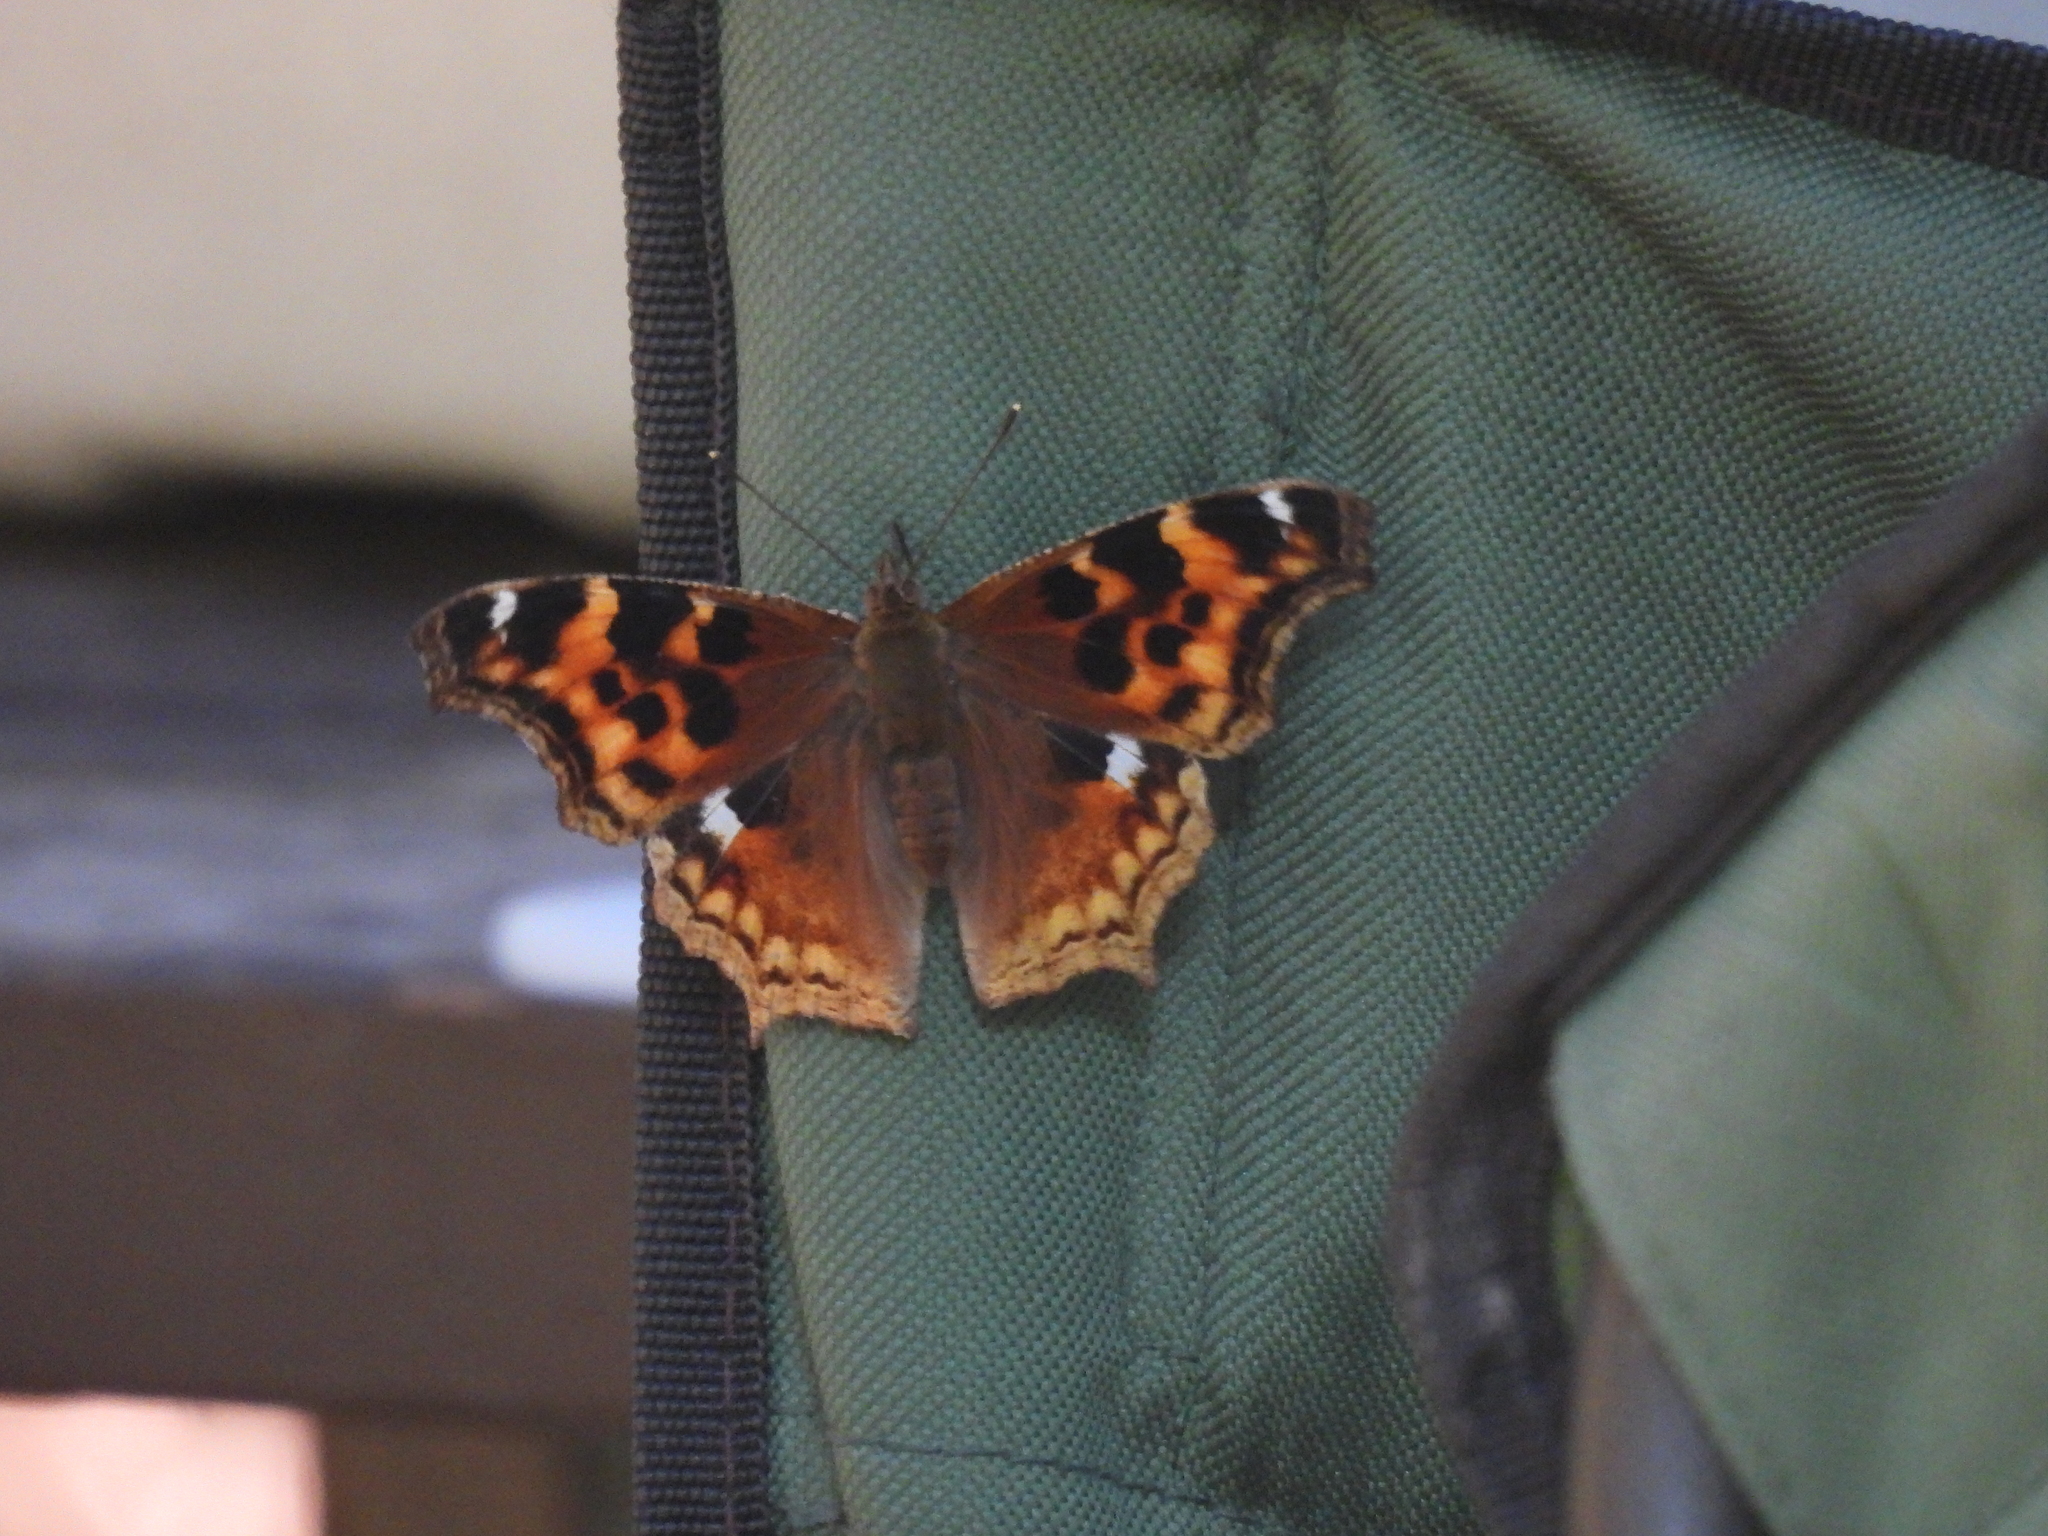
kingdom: Animalia
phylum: Arthropoda
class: Insecta
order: Lepidoptera
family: Nymphalidae
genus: Polygonia
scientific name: Polygonia vaualbum
